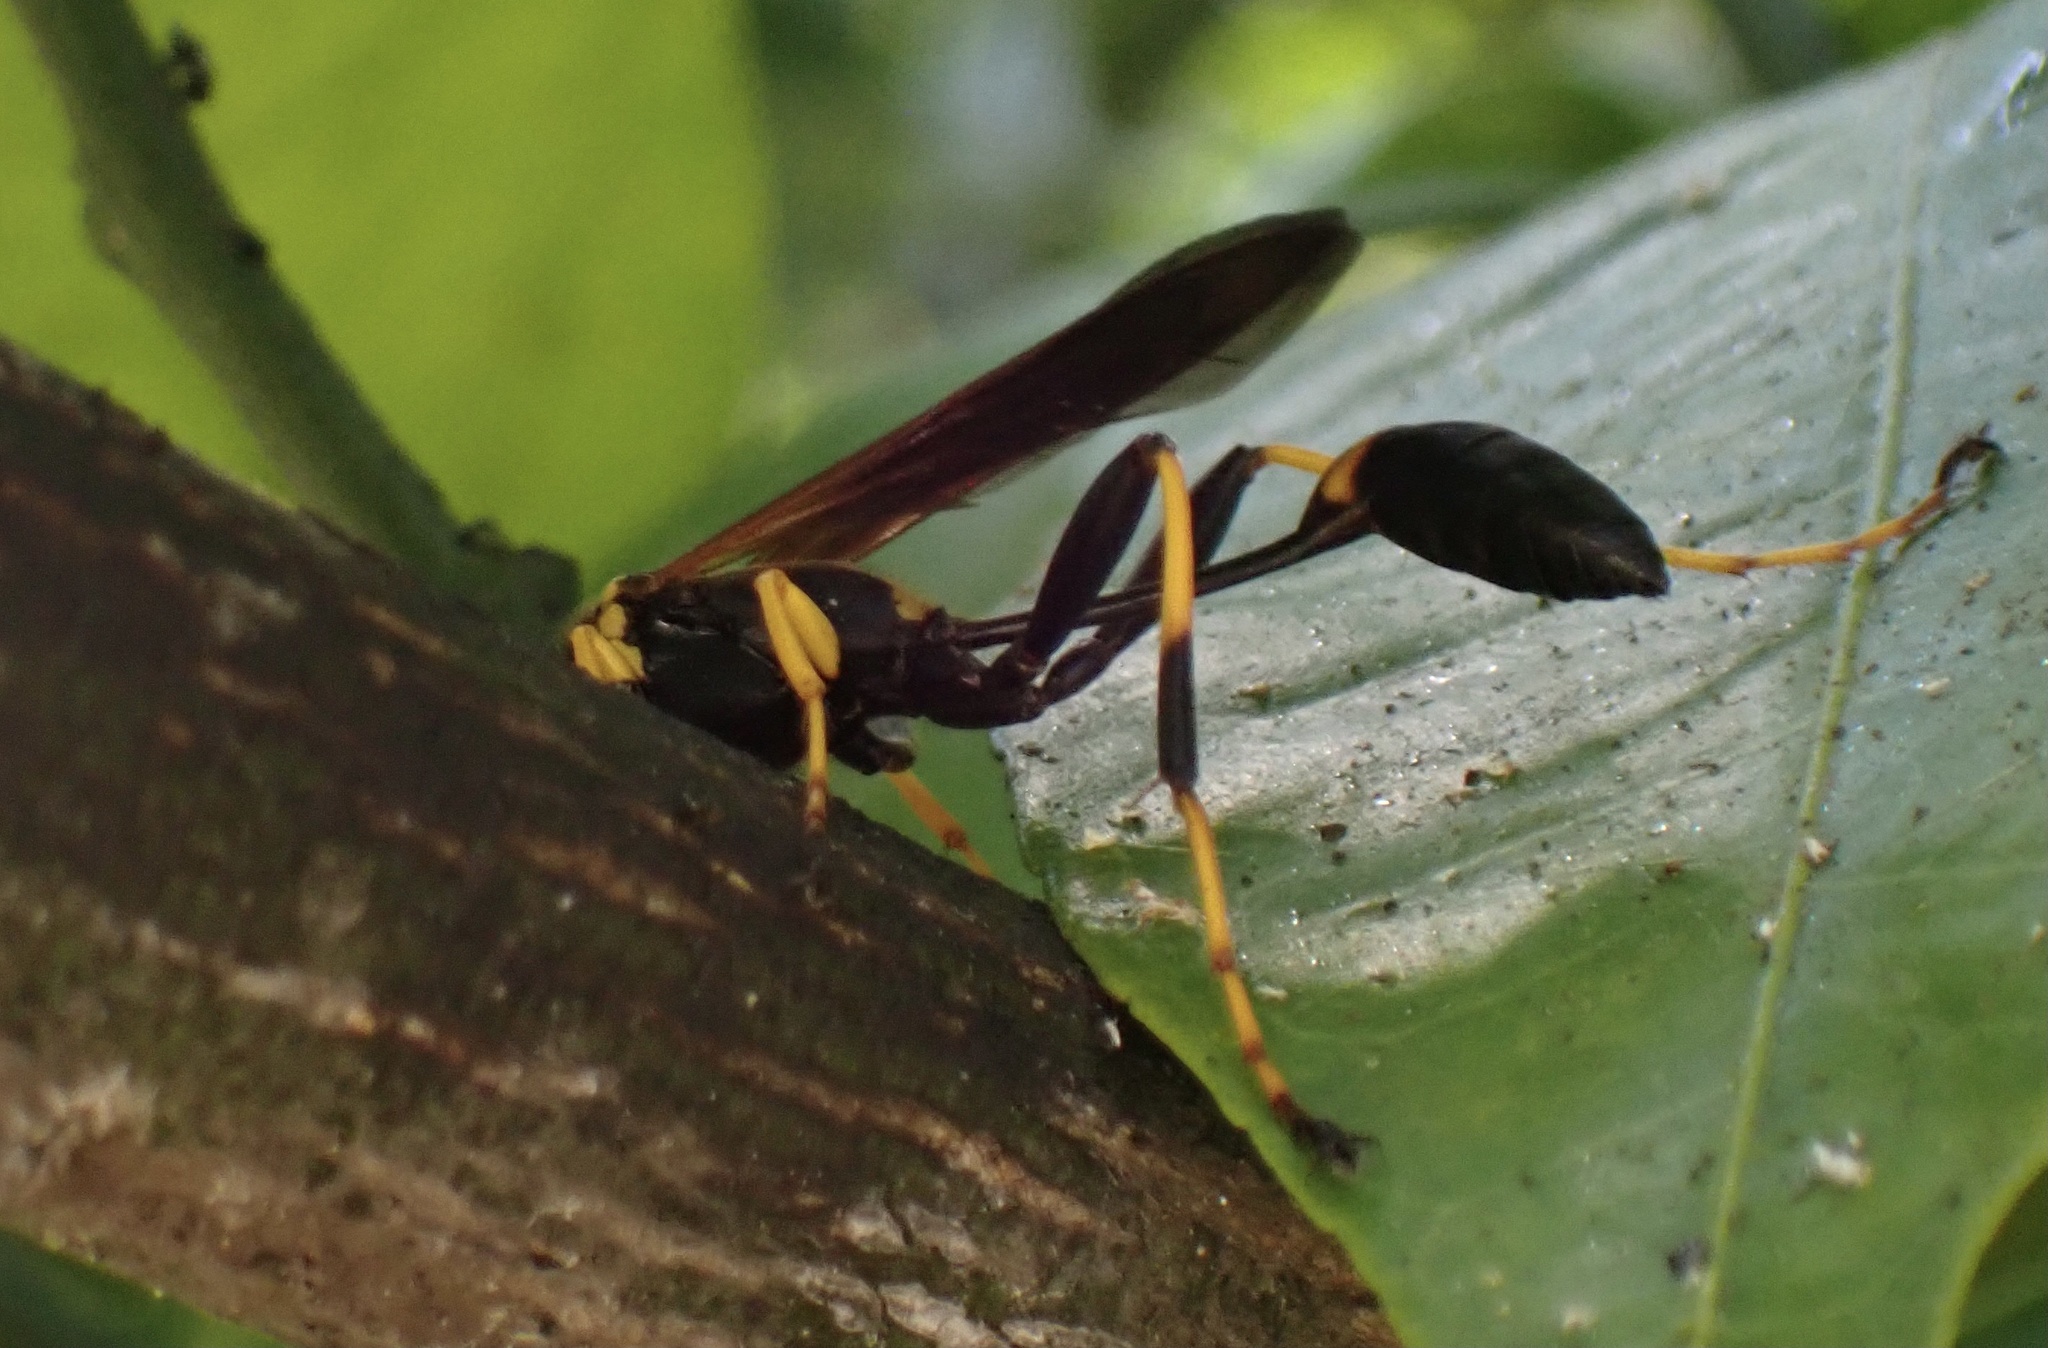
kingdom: Animalia
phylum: Arthropoda
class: Insecta
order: Hymenoptera
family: Sphecidae
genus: Sceliphron
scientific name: Sceliphron caementarium
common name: Mud dauber
